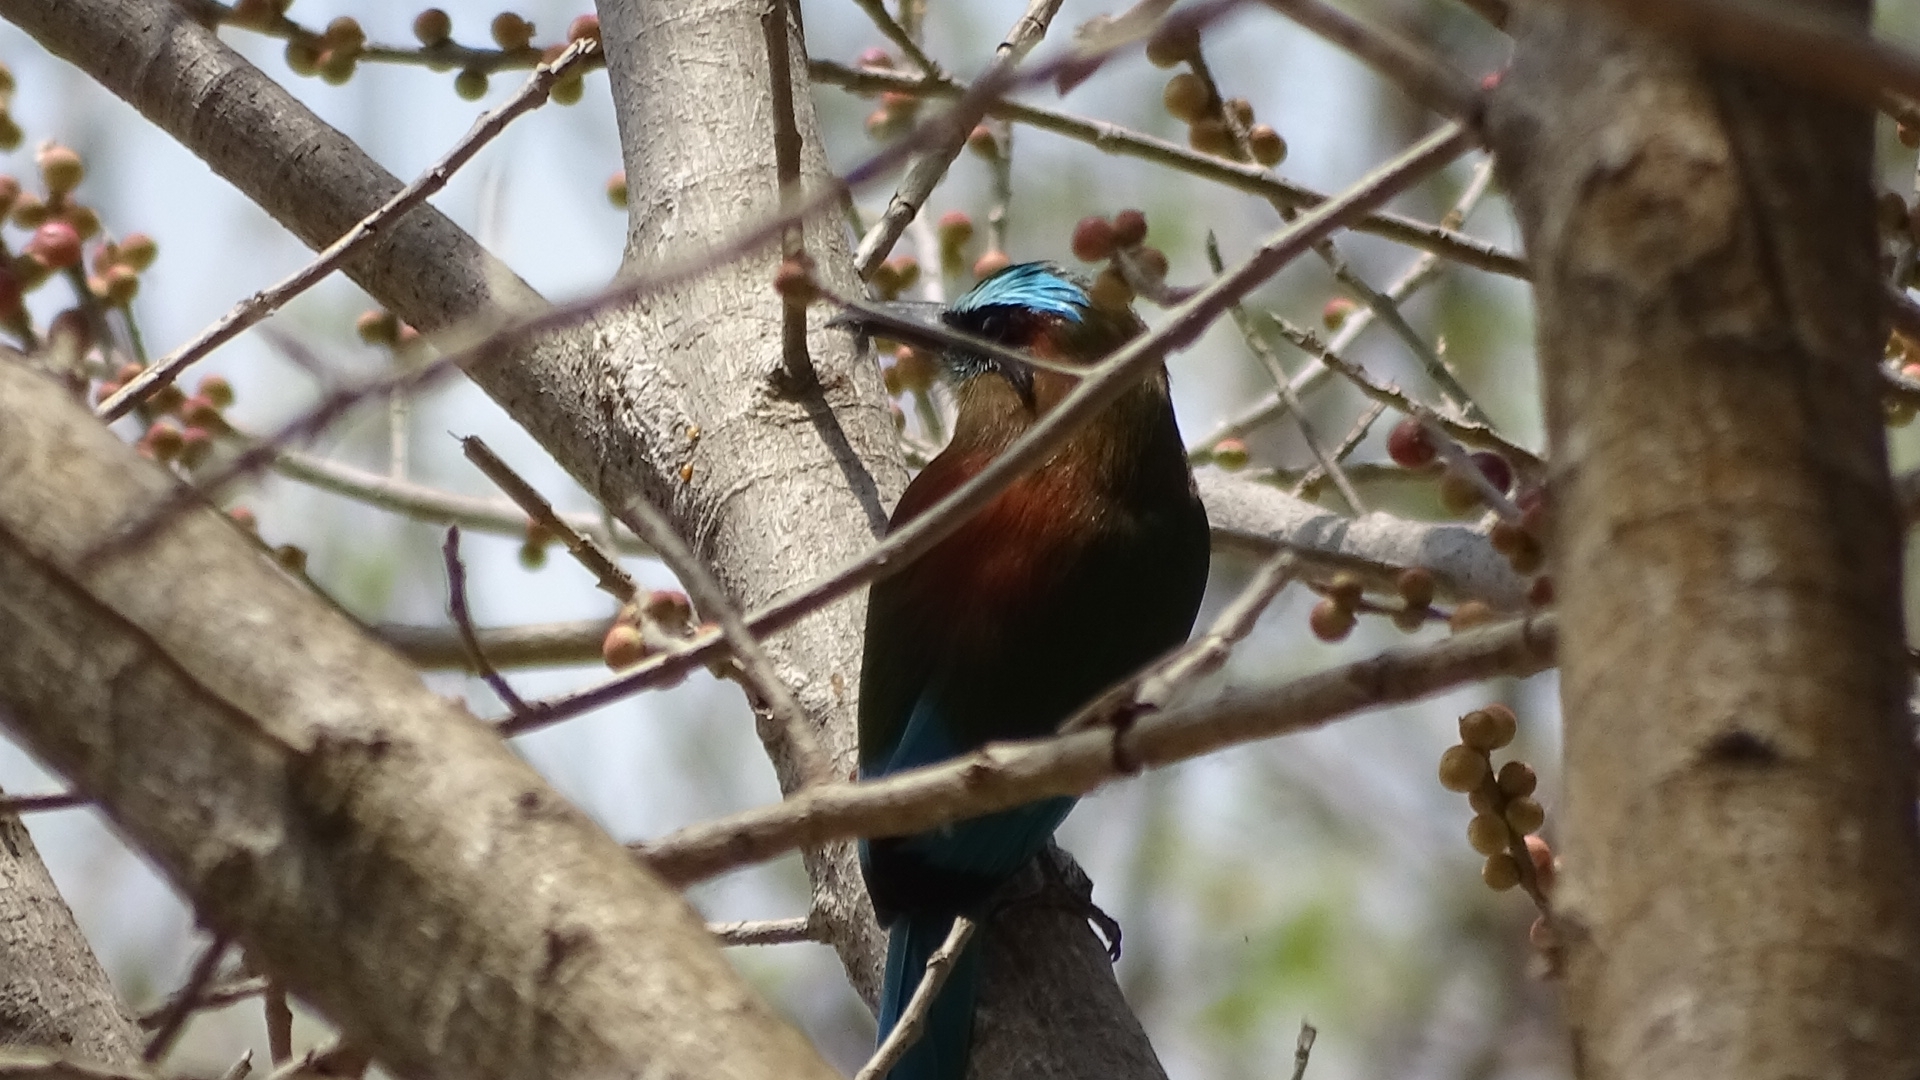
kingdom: Animalia
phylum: Chordata
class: Aves
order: Coraciiformes
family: Momotidae
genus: Eumomota
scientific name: Eumomota superciliosa
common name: Turquoise-browed motmot
